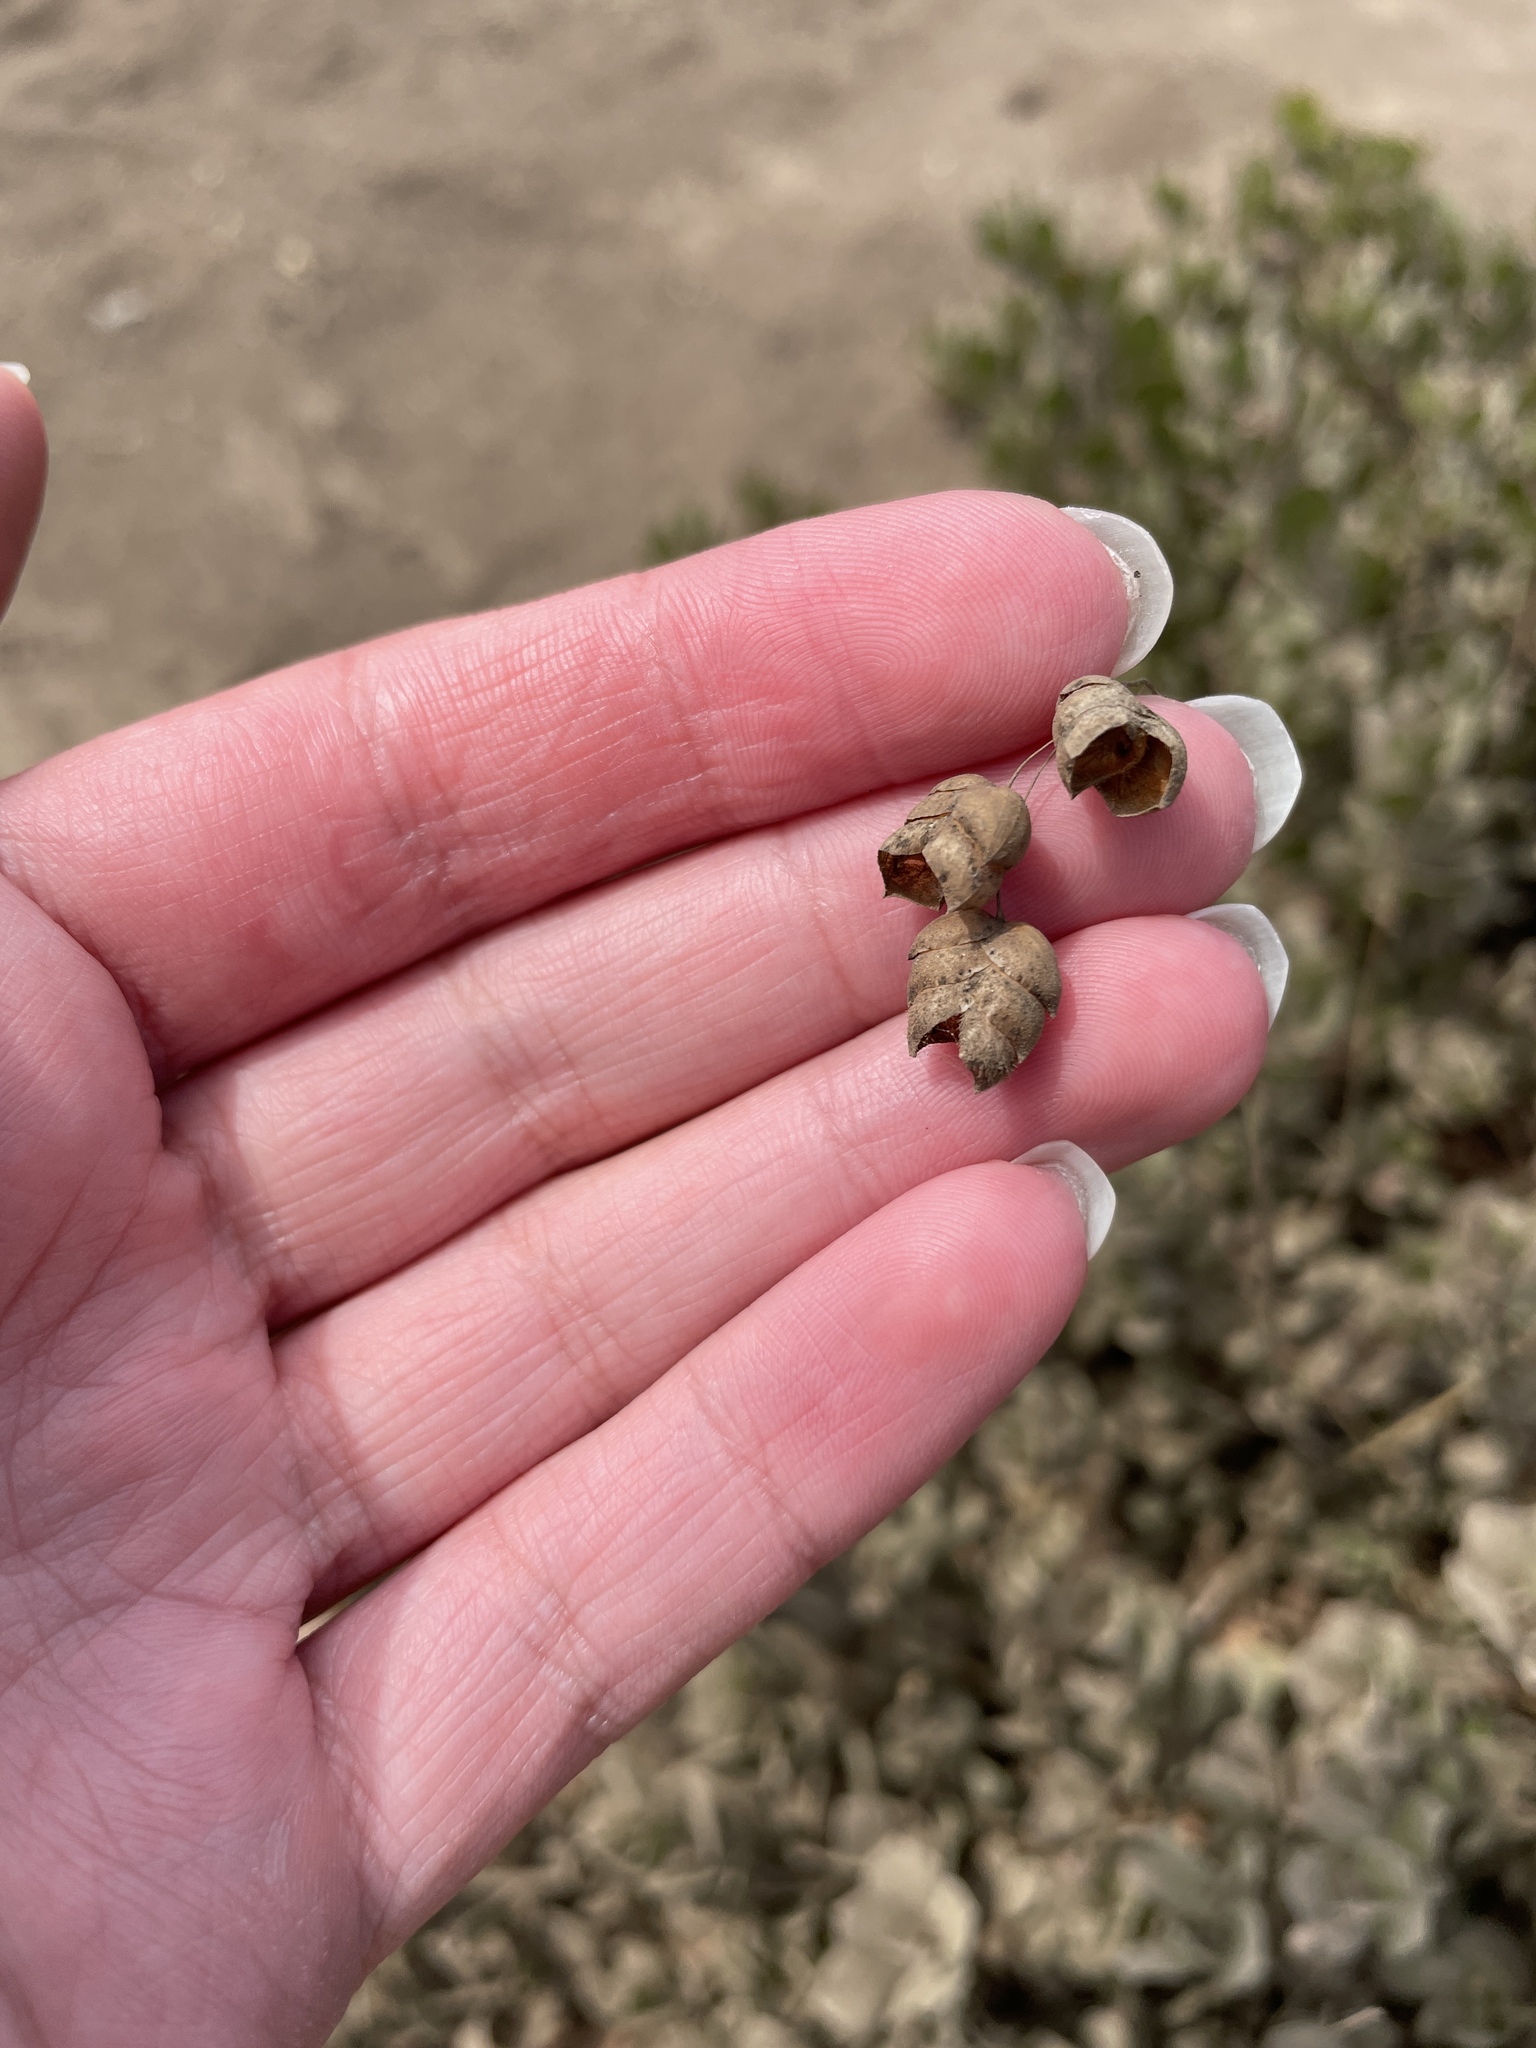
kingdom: Plantae
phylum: Tracheophyta
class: Liliopsida
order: Poales
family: Poaceae
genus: Briza
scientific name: Briza maxima
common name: Big quakinggrass
